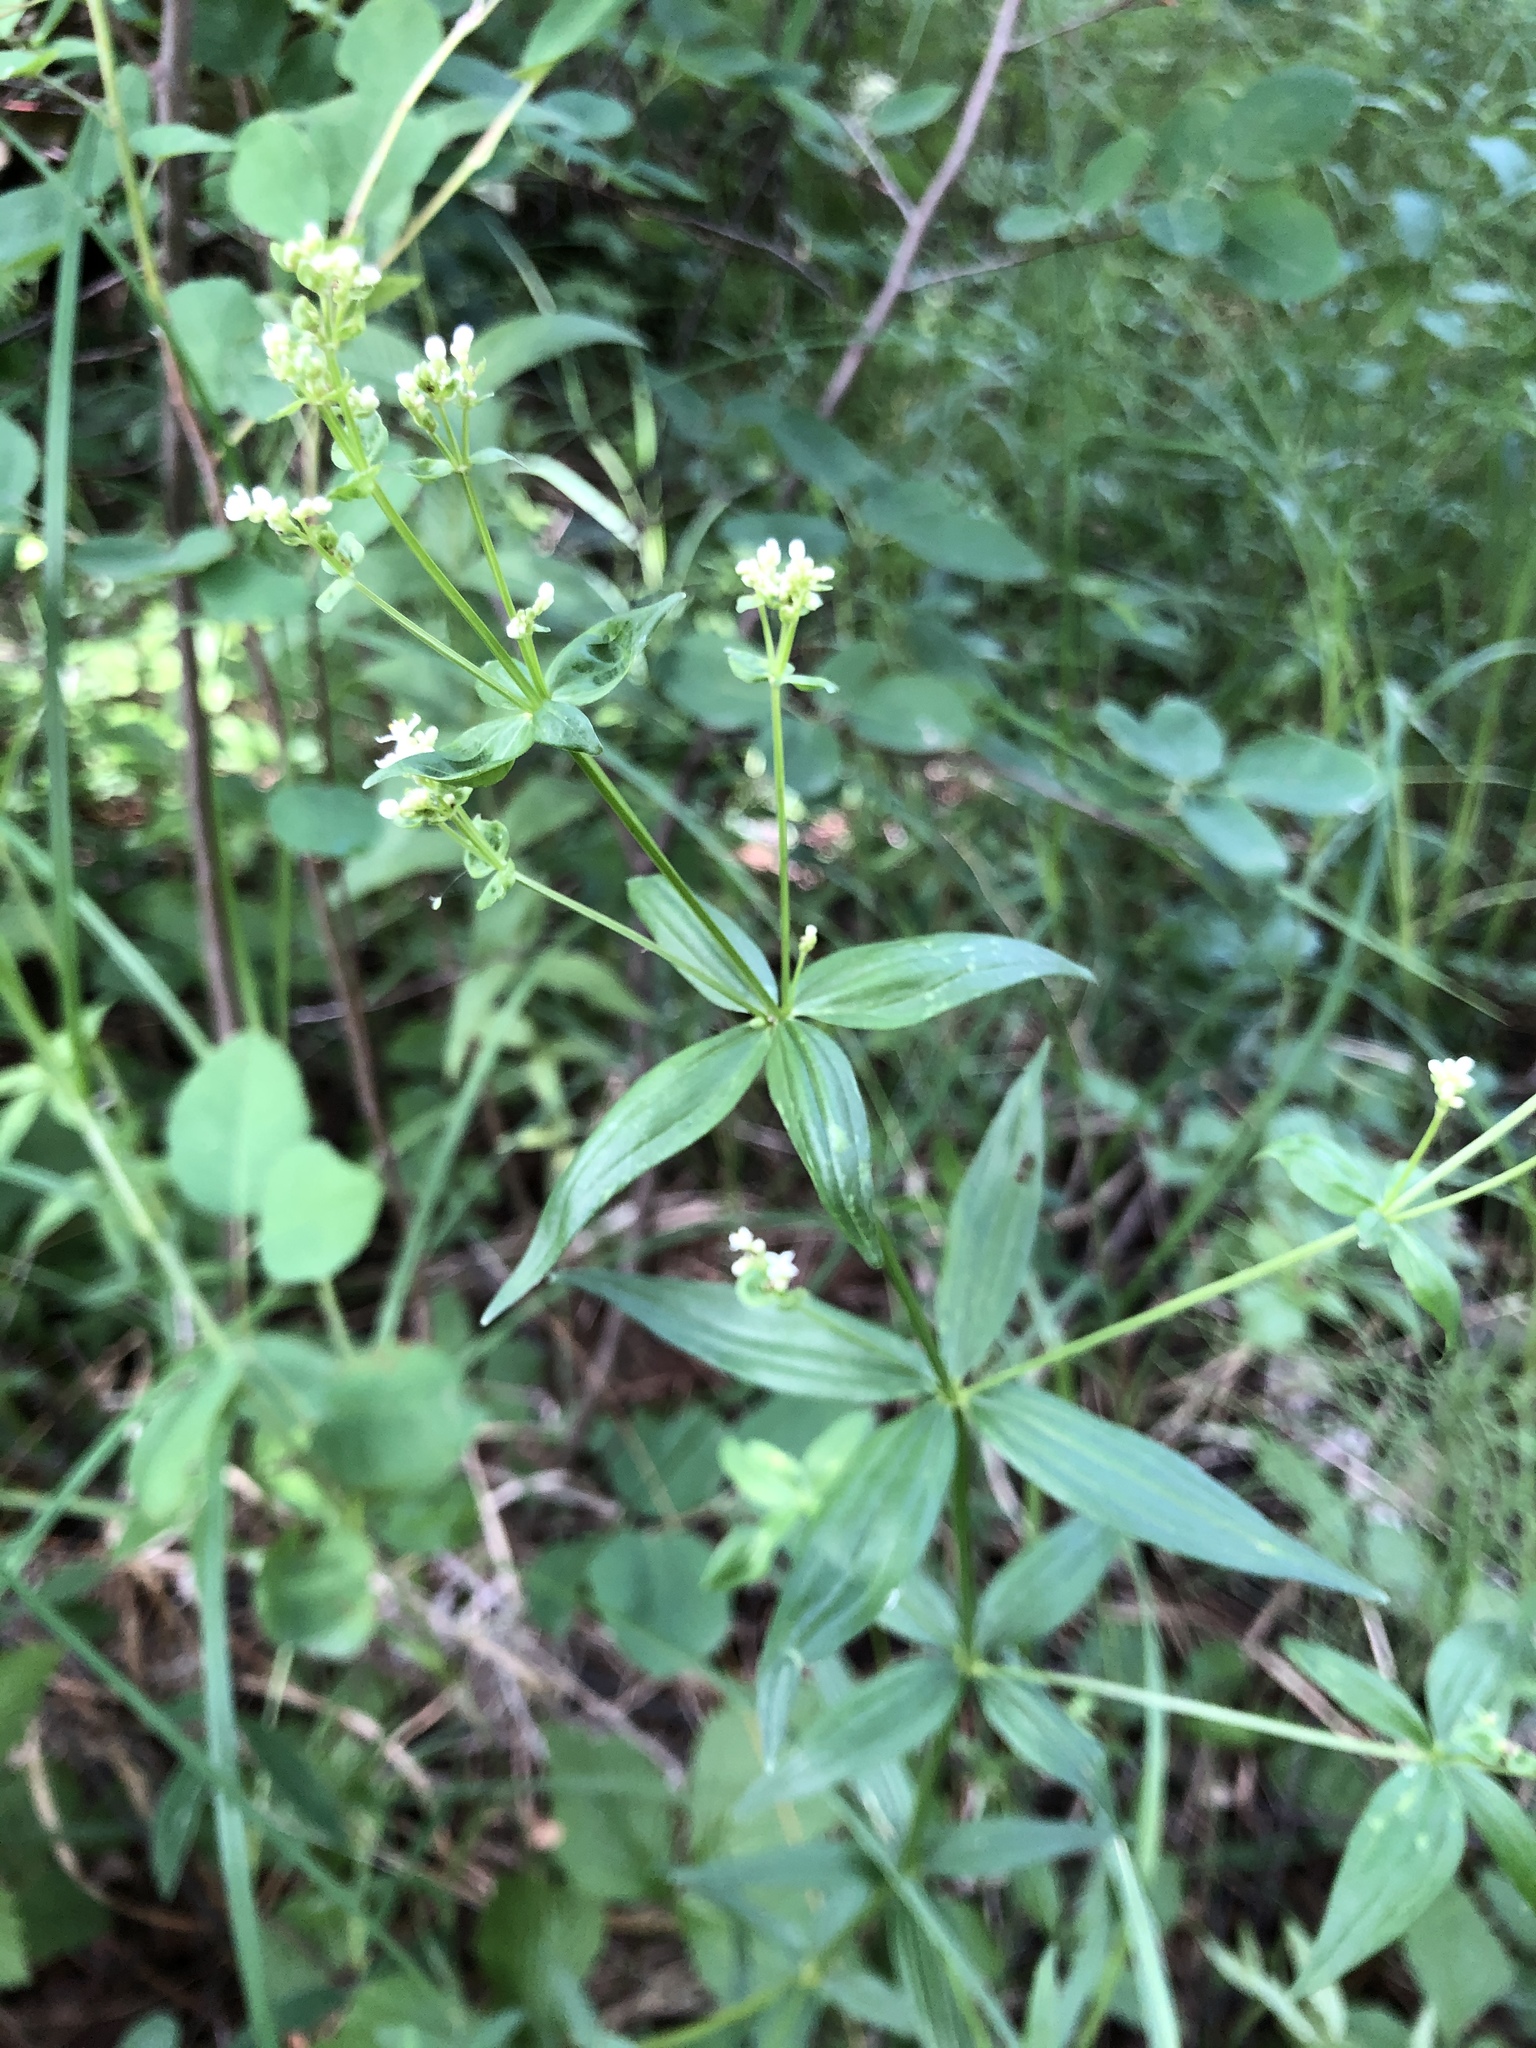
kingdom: Plantae
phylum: Tracheophyta
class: Magnoliopsida
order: Gentianales
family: Rubiaceae
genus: Galium
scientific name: Galium rubioides
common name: European bedstraw
